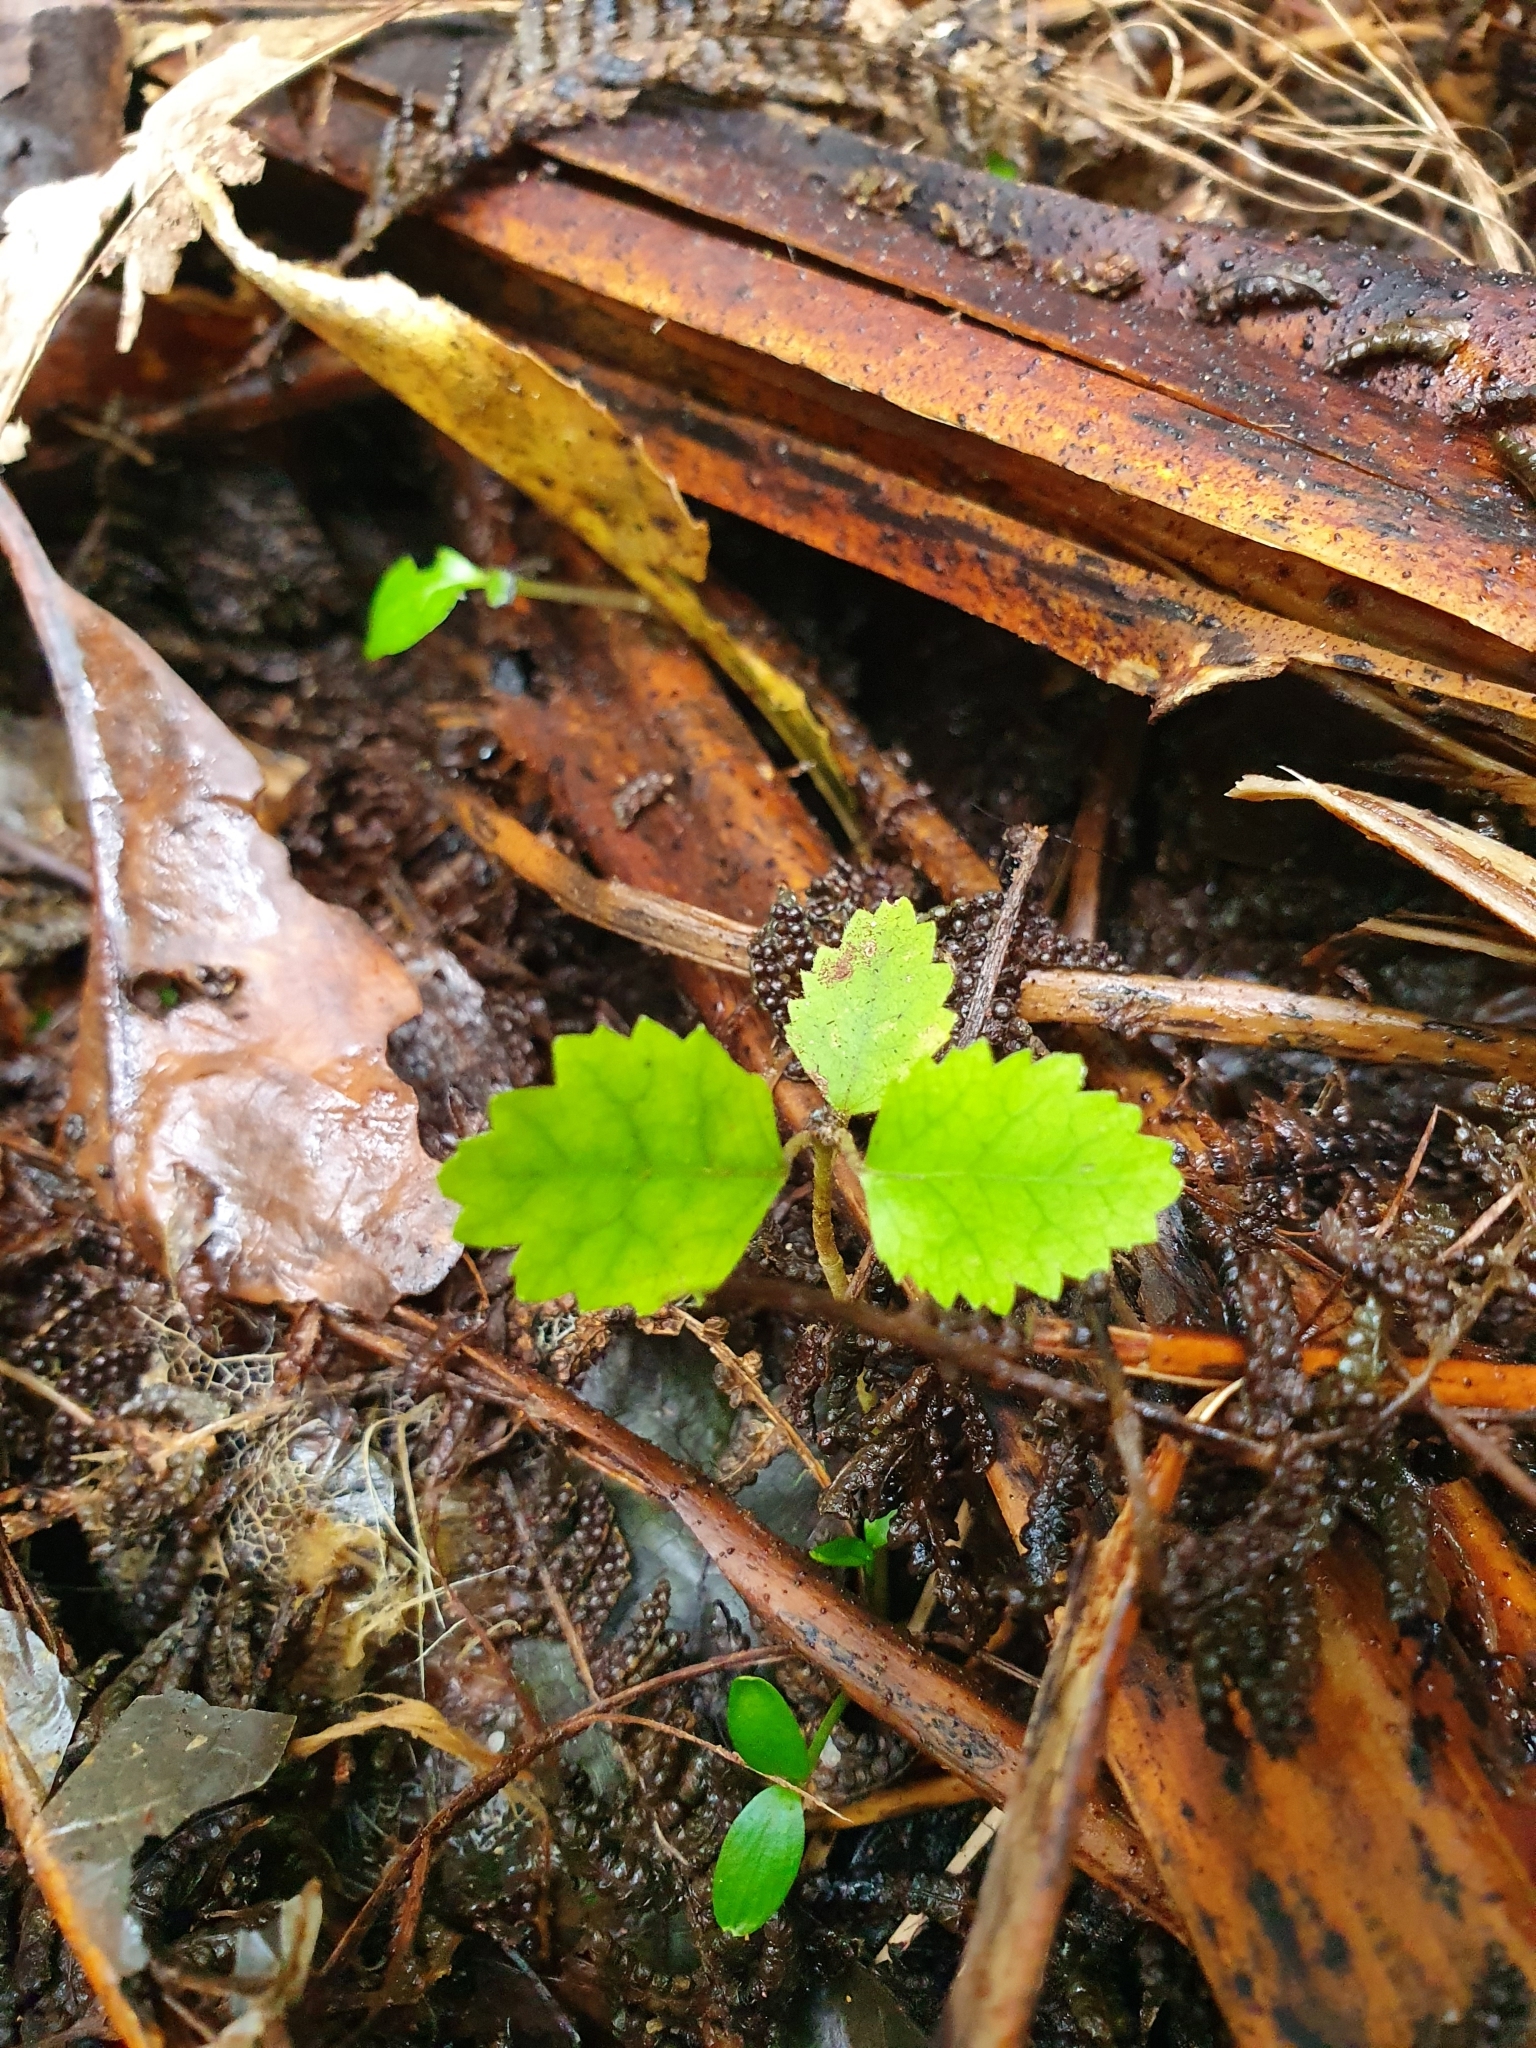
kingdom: Plantae
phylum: Tracheophyta
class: Magnoliopsida
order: Malvales
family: Malvaceae
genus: Hoheria
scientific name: Hoheria populnea
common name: Lacebark
